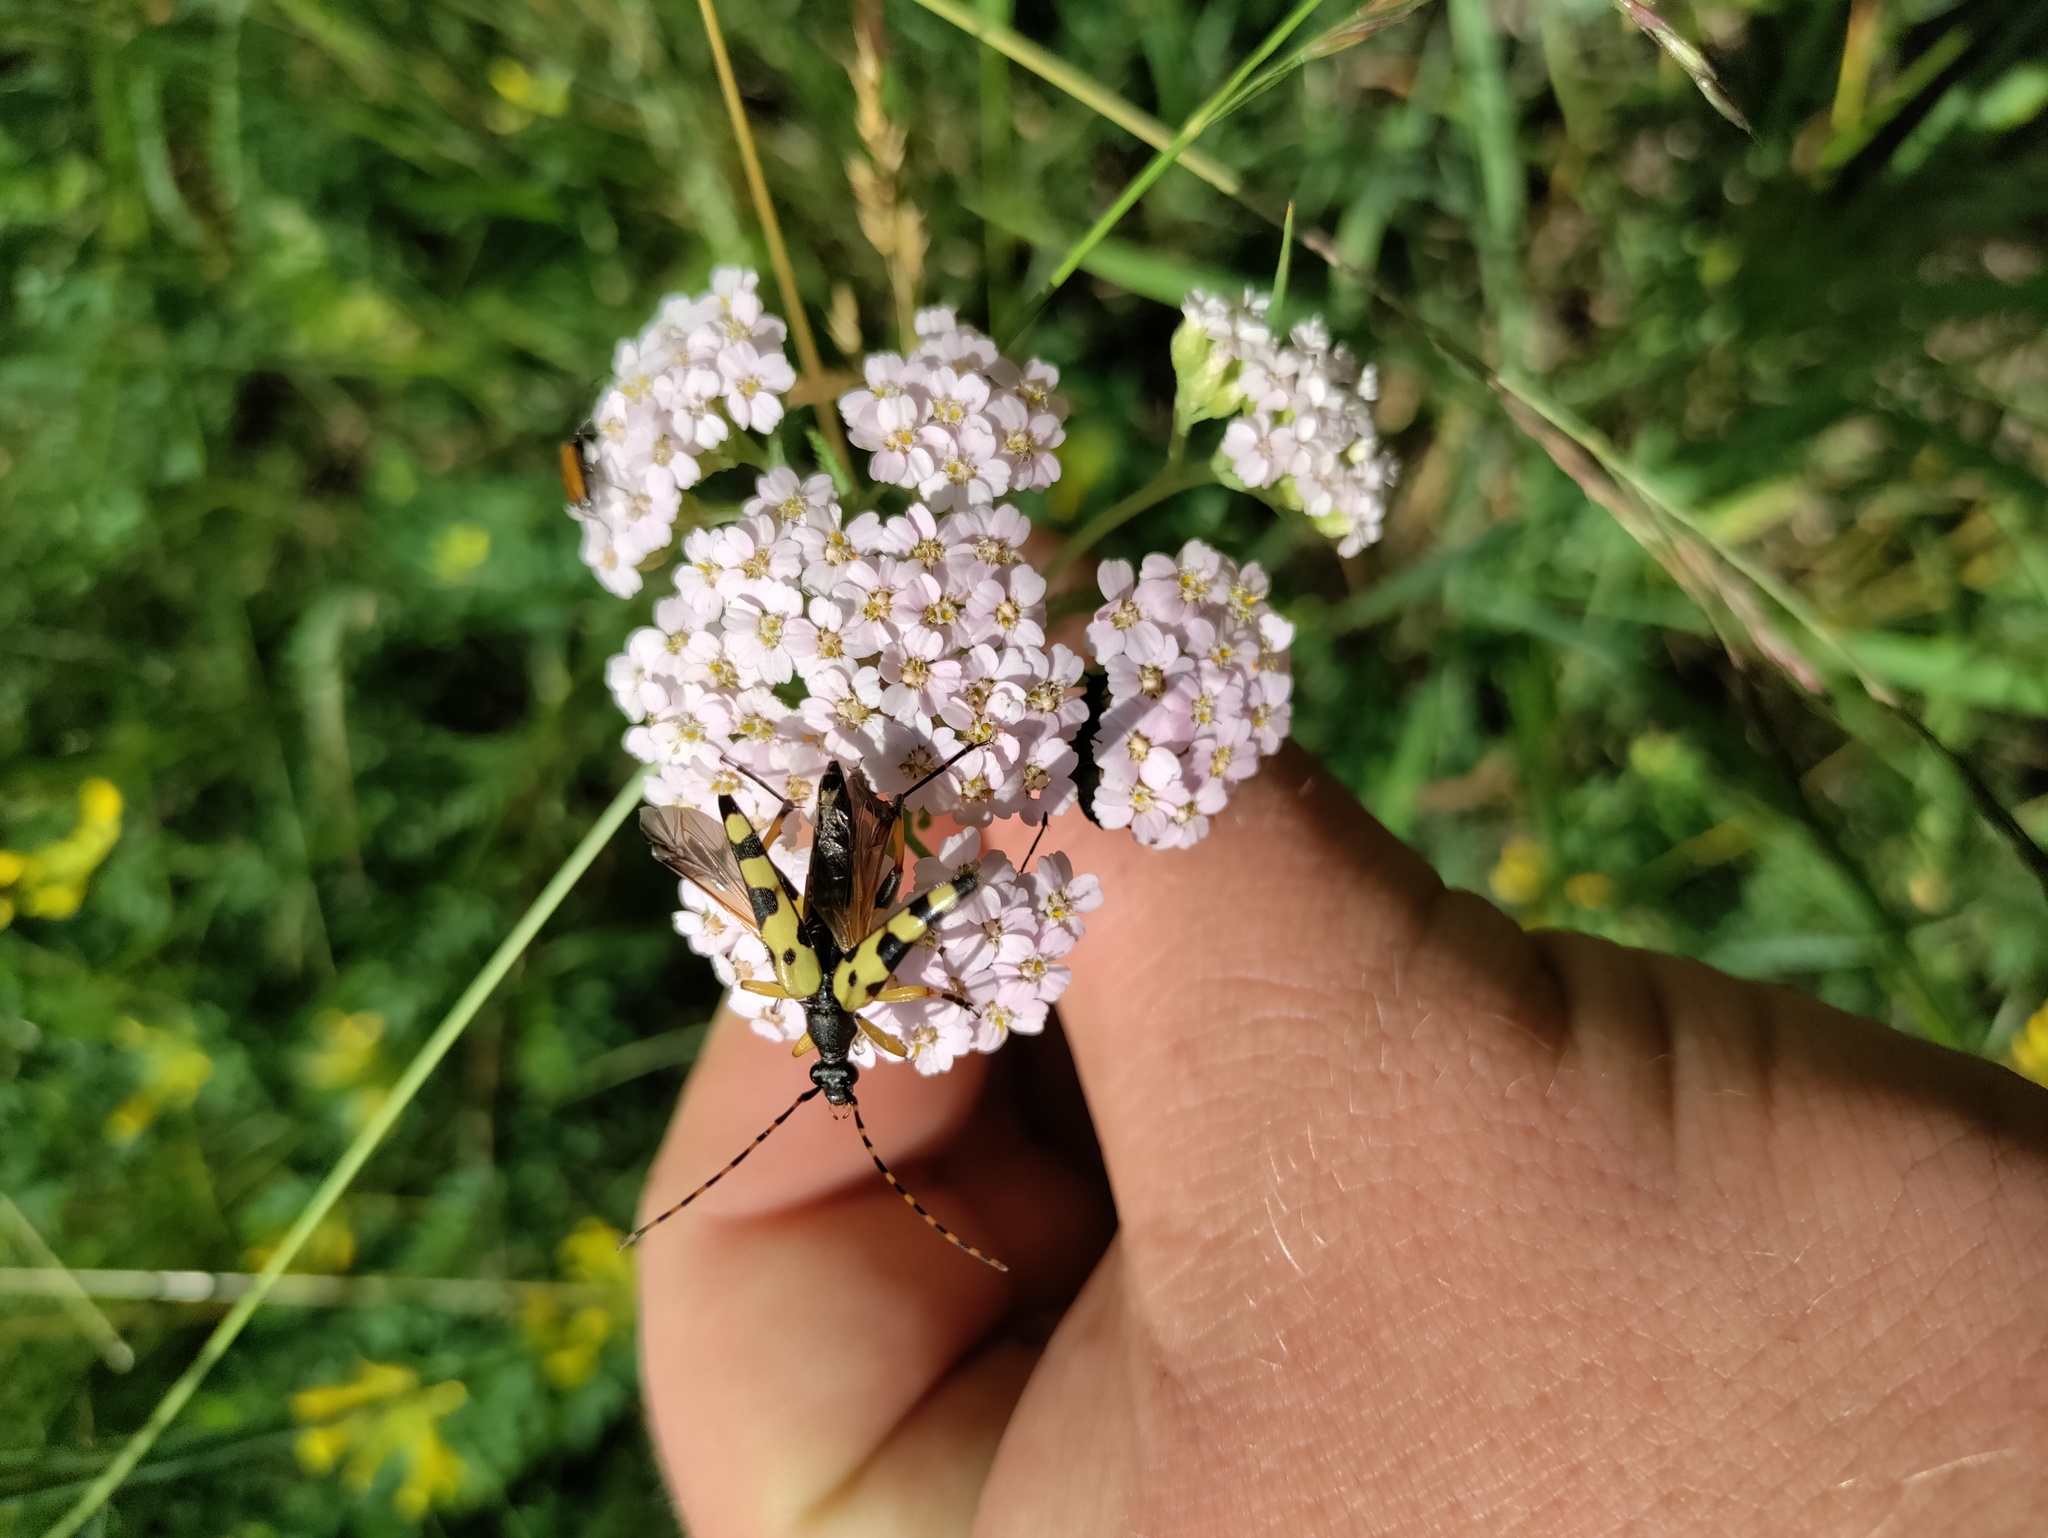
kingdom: Animalia
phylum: Arthropoda
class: Insecta
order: Coleoptera
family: Cerambycidae
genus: Rutpela
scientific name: Rutpela maculata
